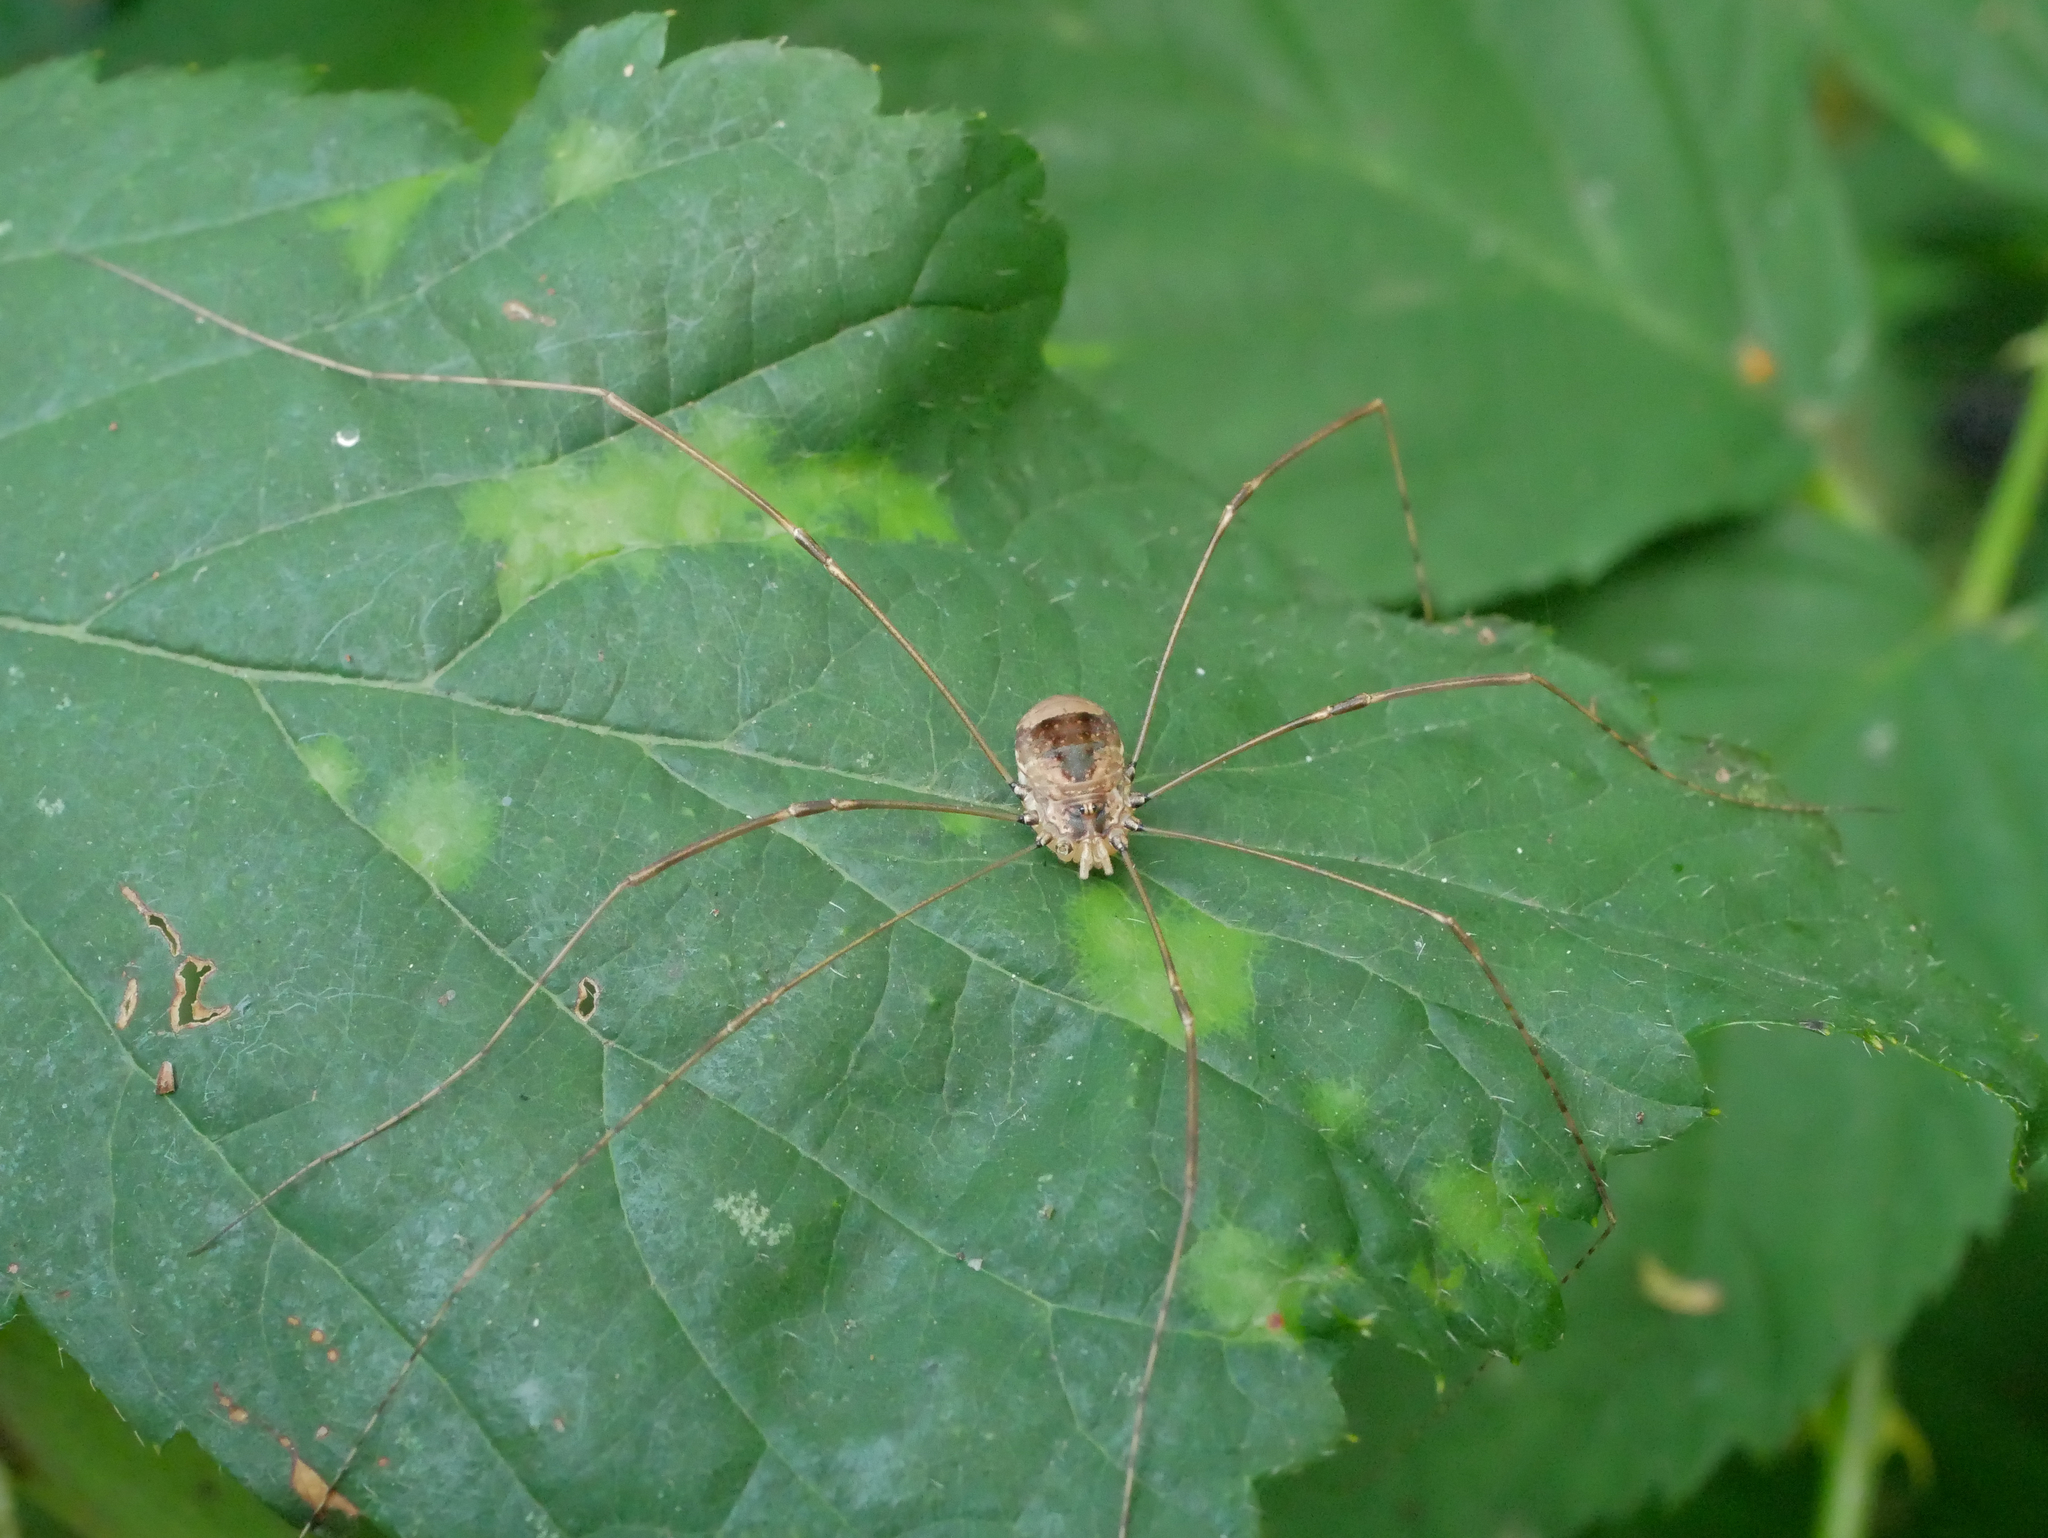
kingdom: Animalia
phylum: Arthropoda
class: Arachnida
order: Opiliones
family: Sclerosomatidae
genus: Leiobunum
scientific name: Leiobunum blackwalli
